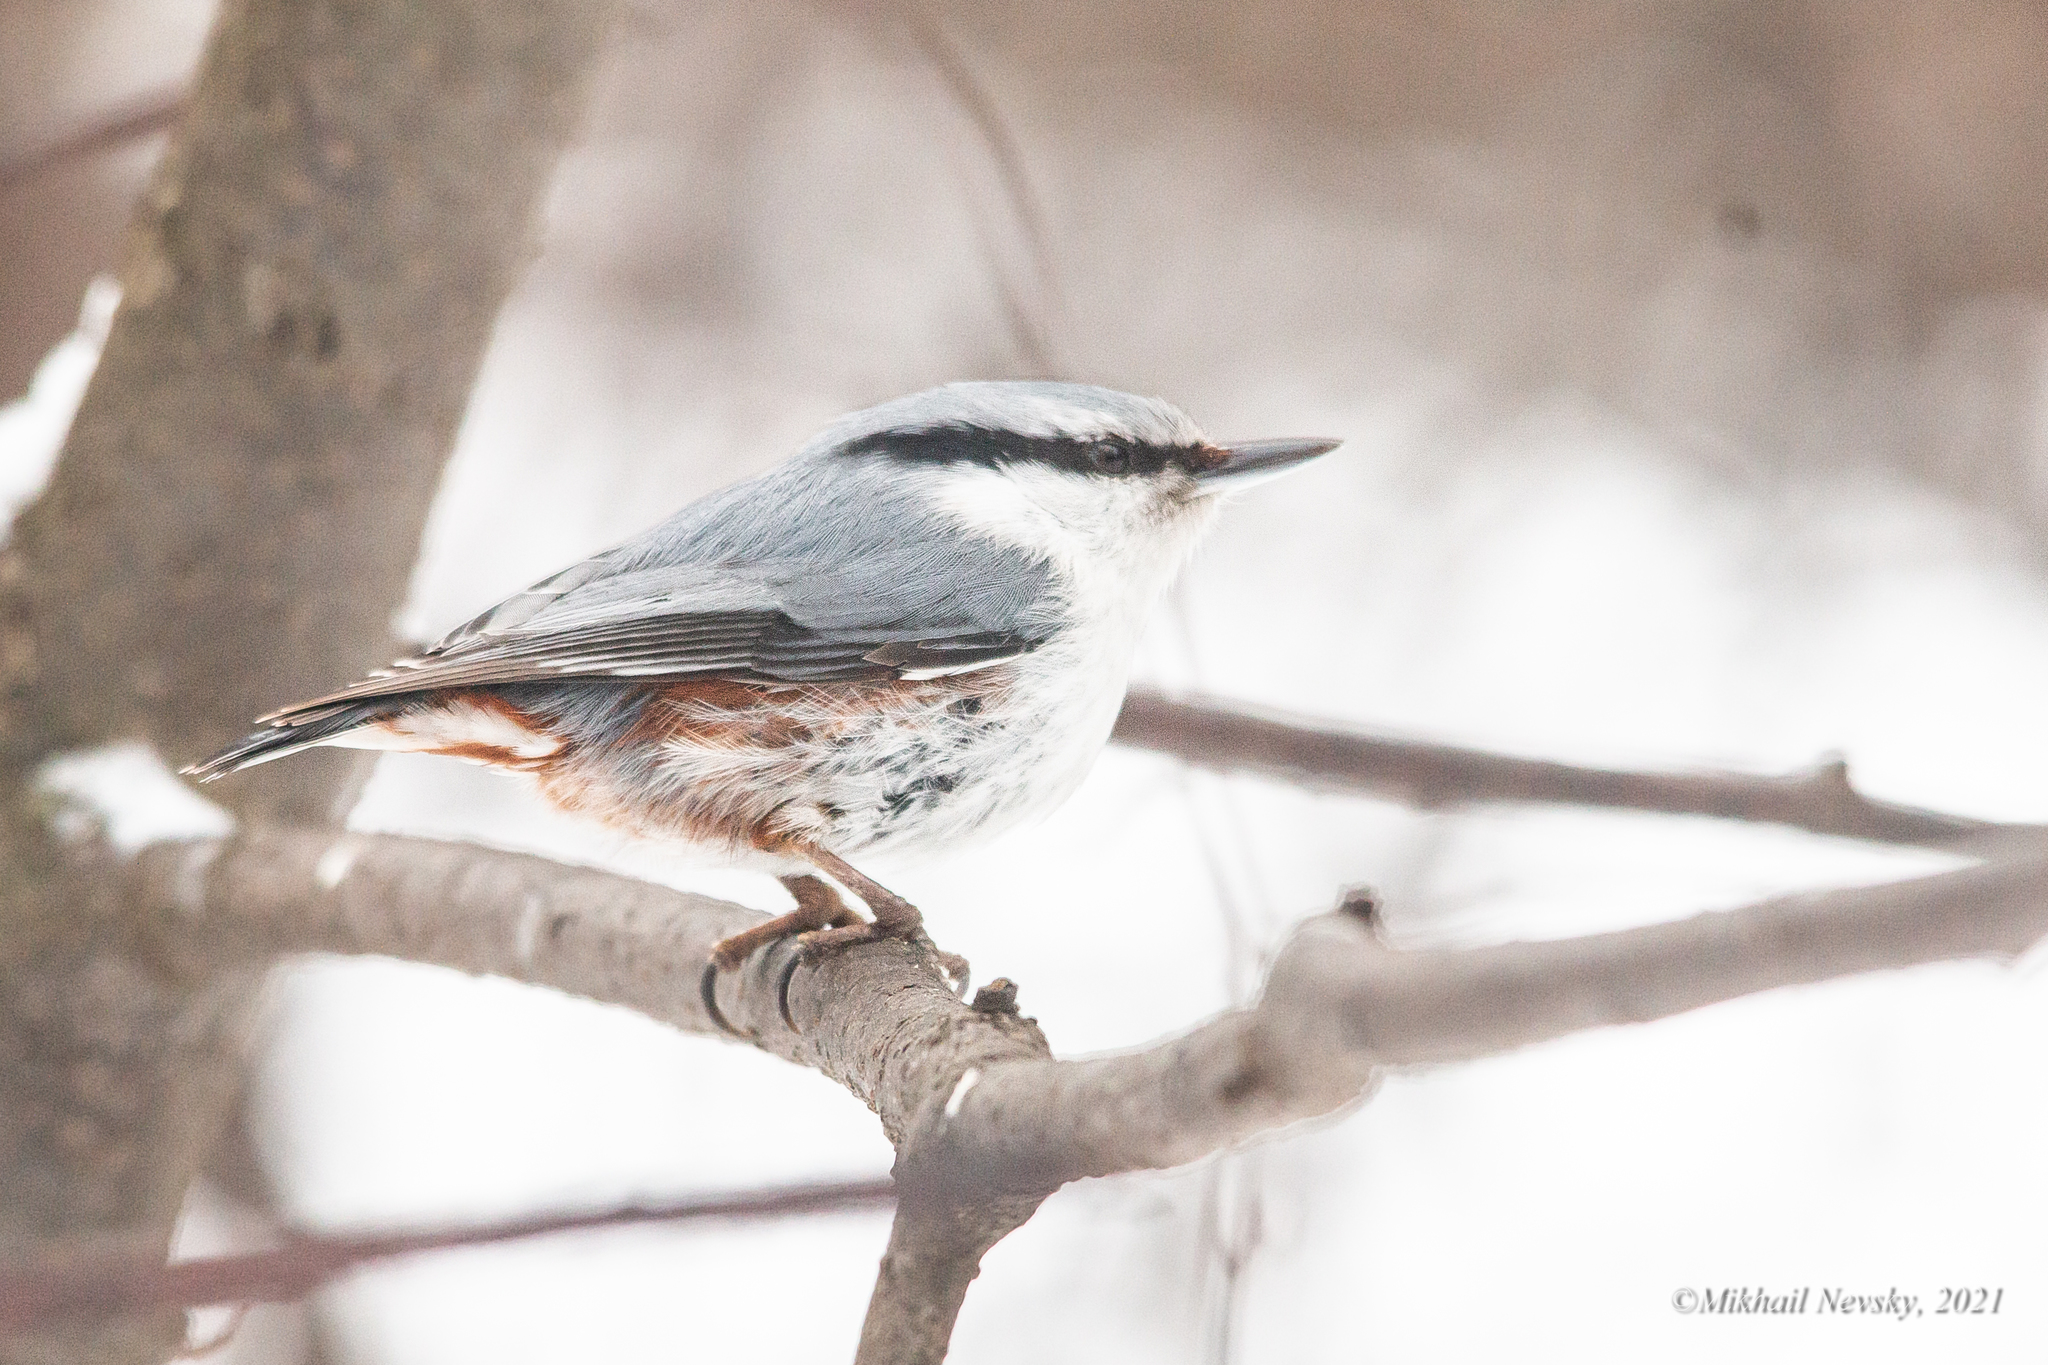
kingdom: Animalia
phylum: Chordata
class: Aves
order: Passeriformes
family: Sittidae
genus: Sitta
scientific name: Sitta europaea
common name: Eurasian nuthatch
